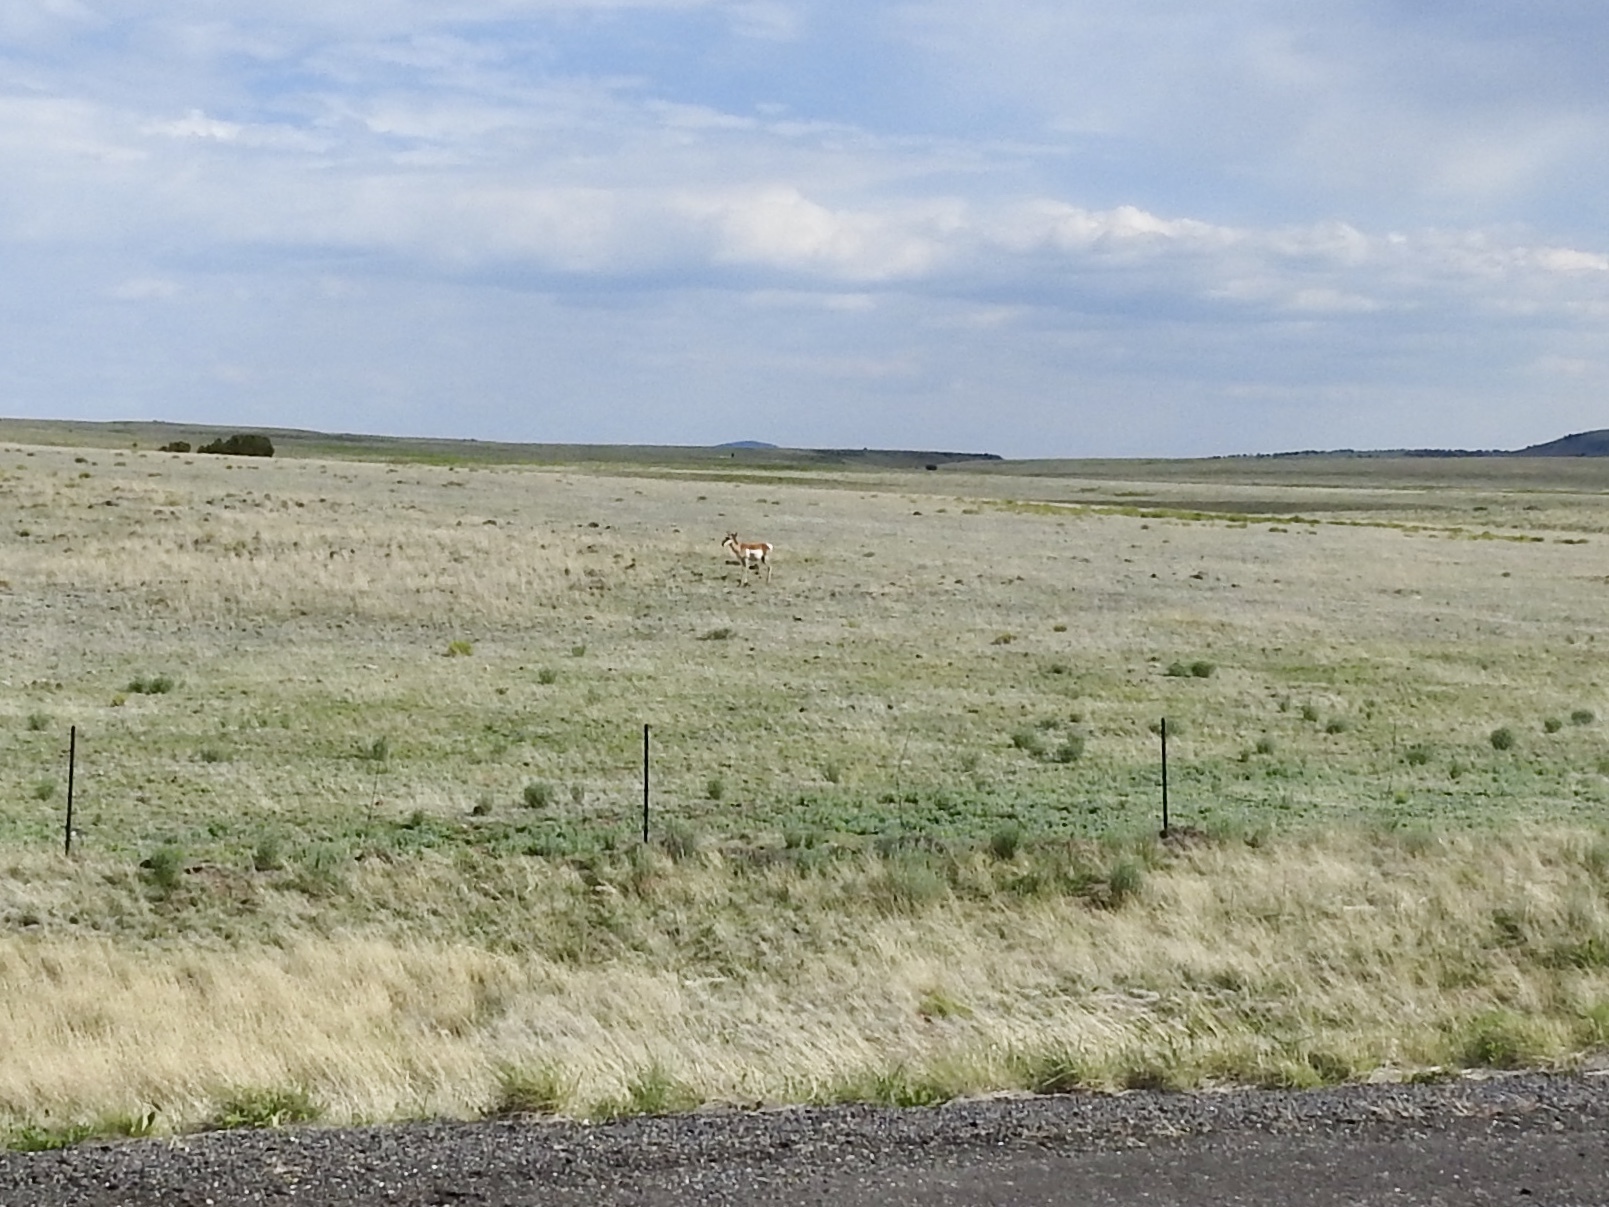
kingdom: Animalia
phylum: Chordata
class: Mammalia
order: Artiodactyla
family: Antilocapridae
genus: Antilocapra
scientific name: Antilocapra americana
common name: Pronghorn
